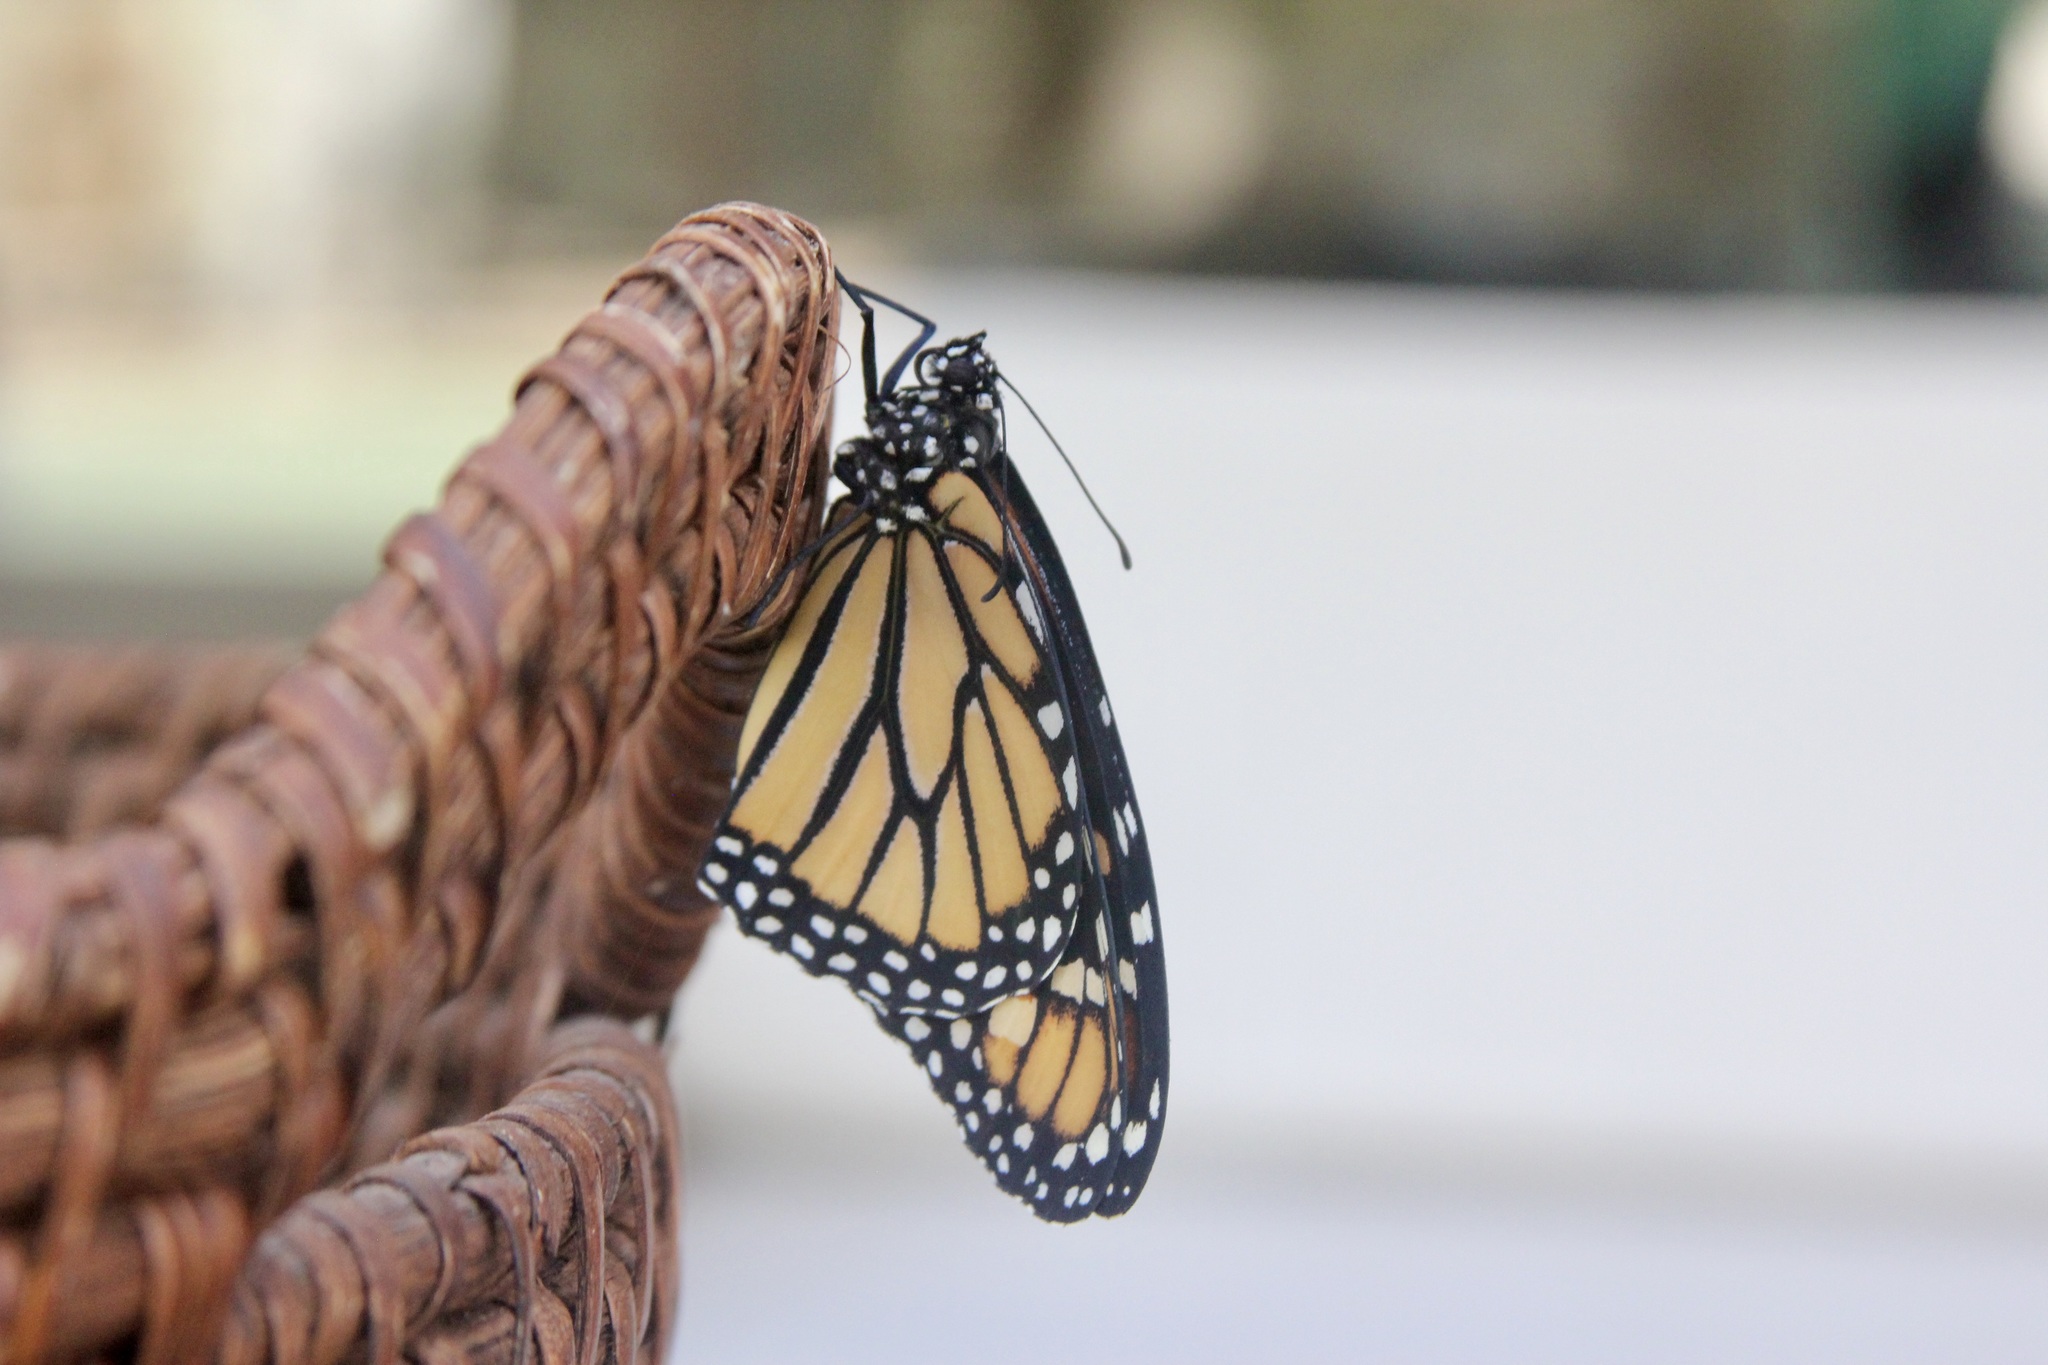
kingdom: Animalia
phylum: Arthropoda
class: Insecta
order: Lepidoptera
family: Nymphalidae
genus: Danaus
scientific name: Danaus plexippus
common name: Monarch
